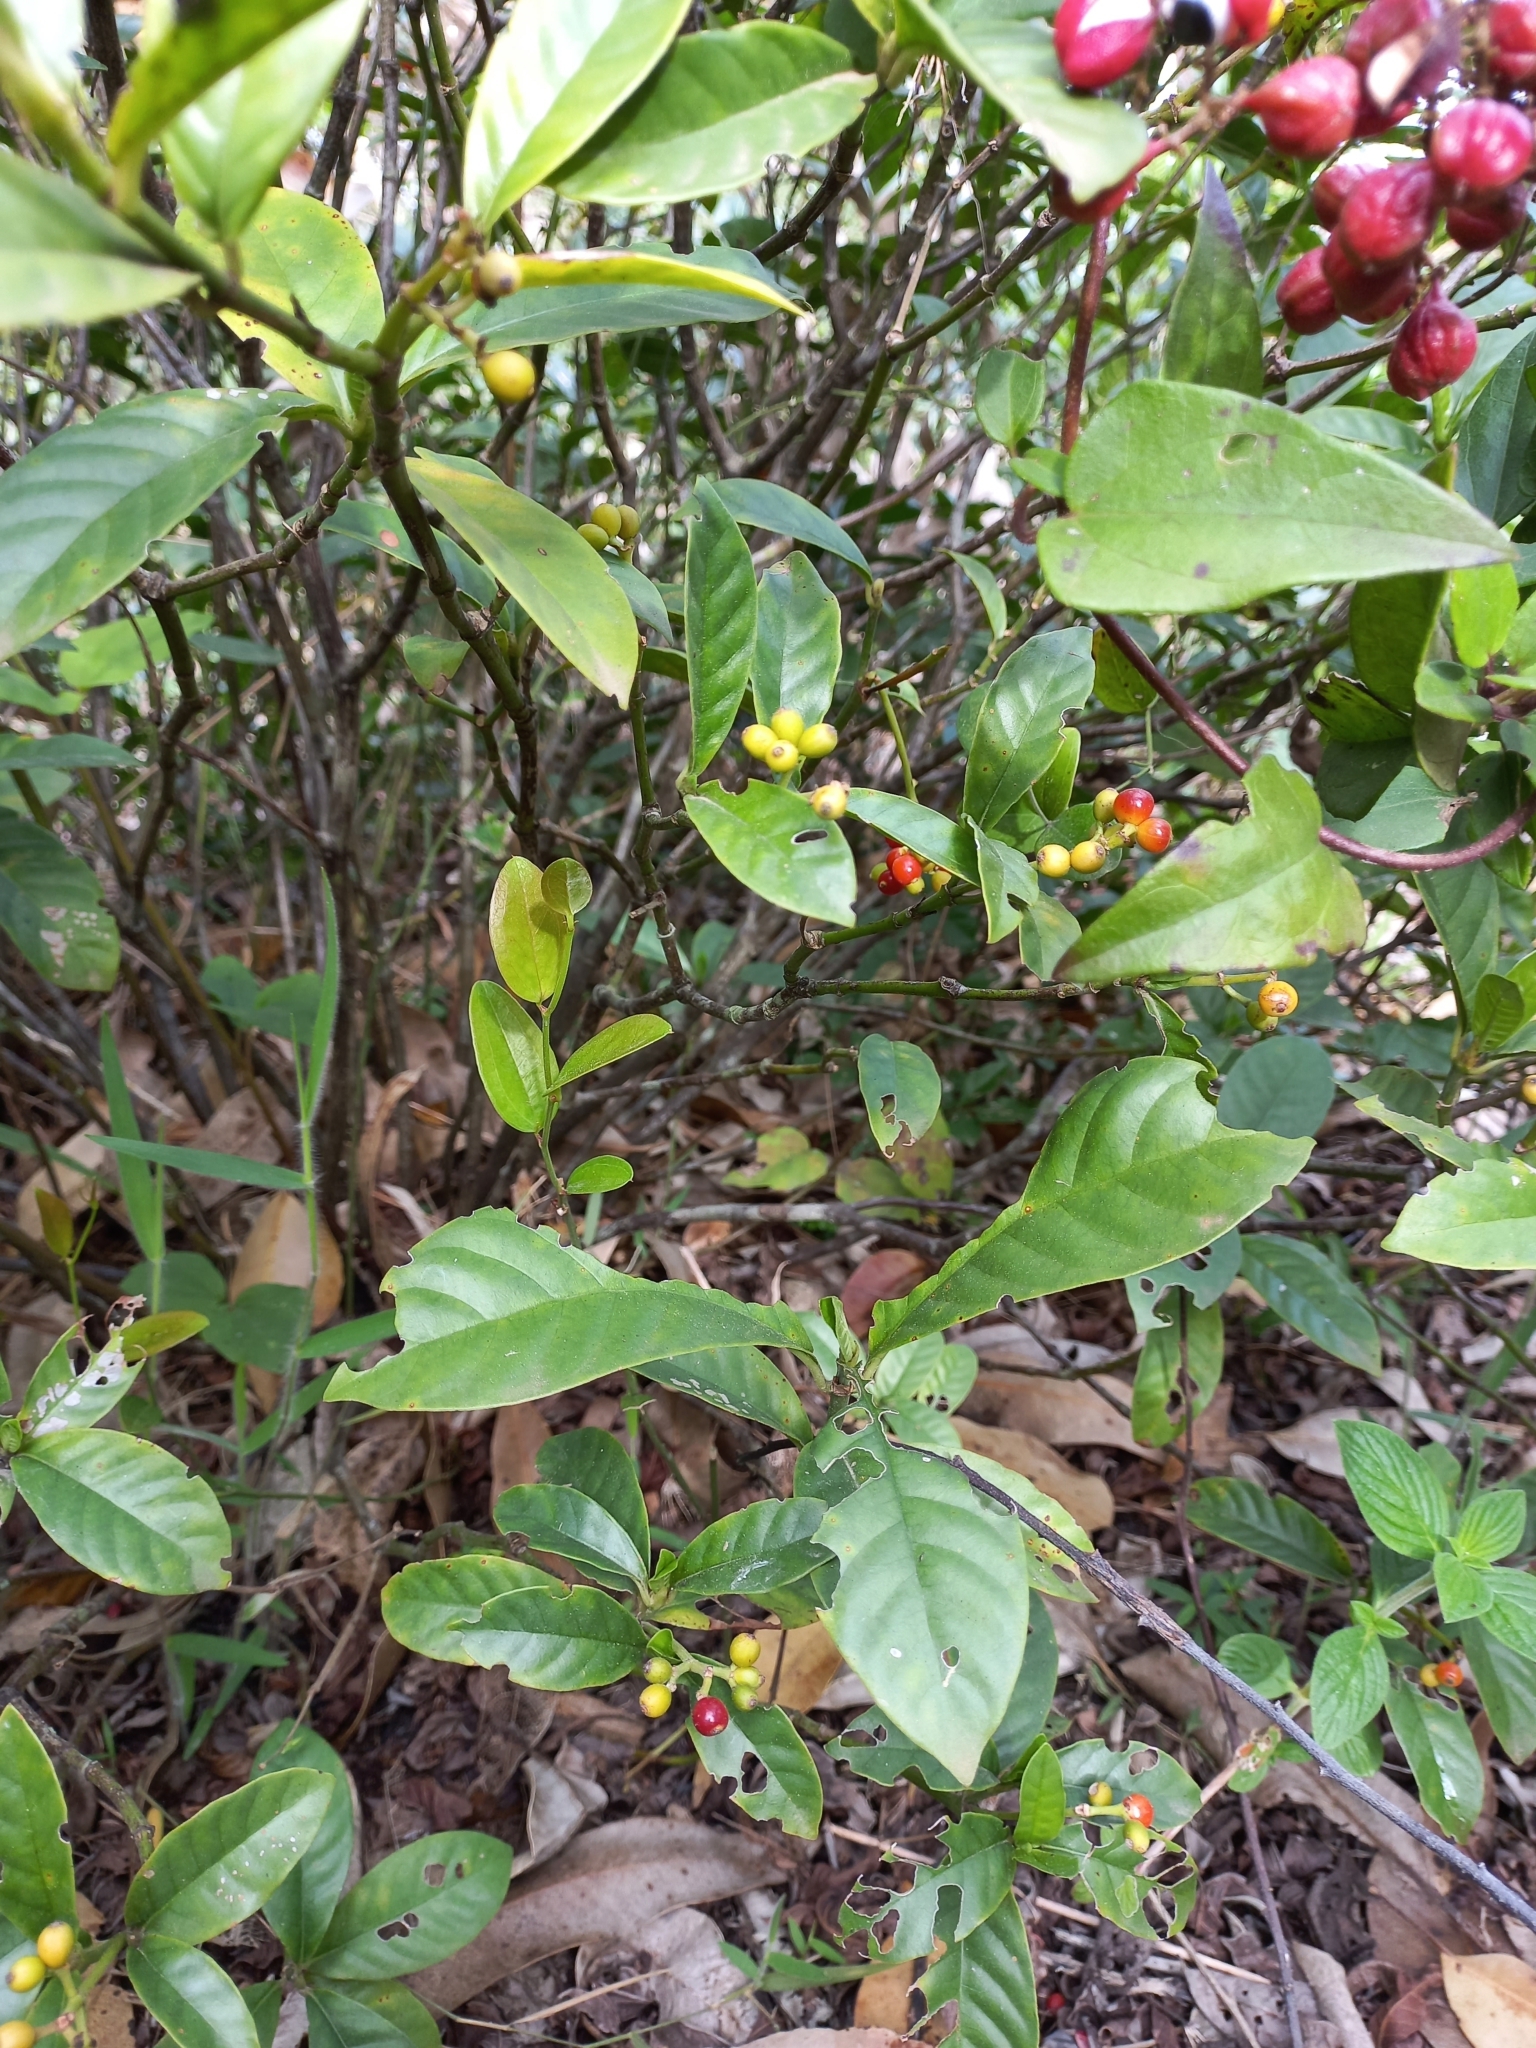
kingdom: Plantae
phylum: Tracheophyta
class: Magnoliopsida
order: Gentianales
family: Rubiaceae
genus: Psychotria
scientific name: Psychotria carthagenensis
